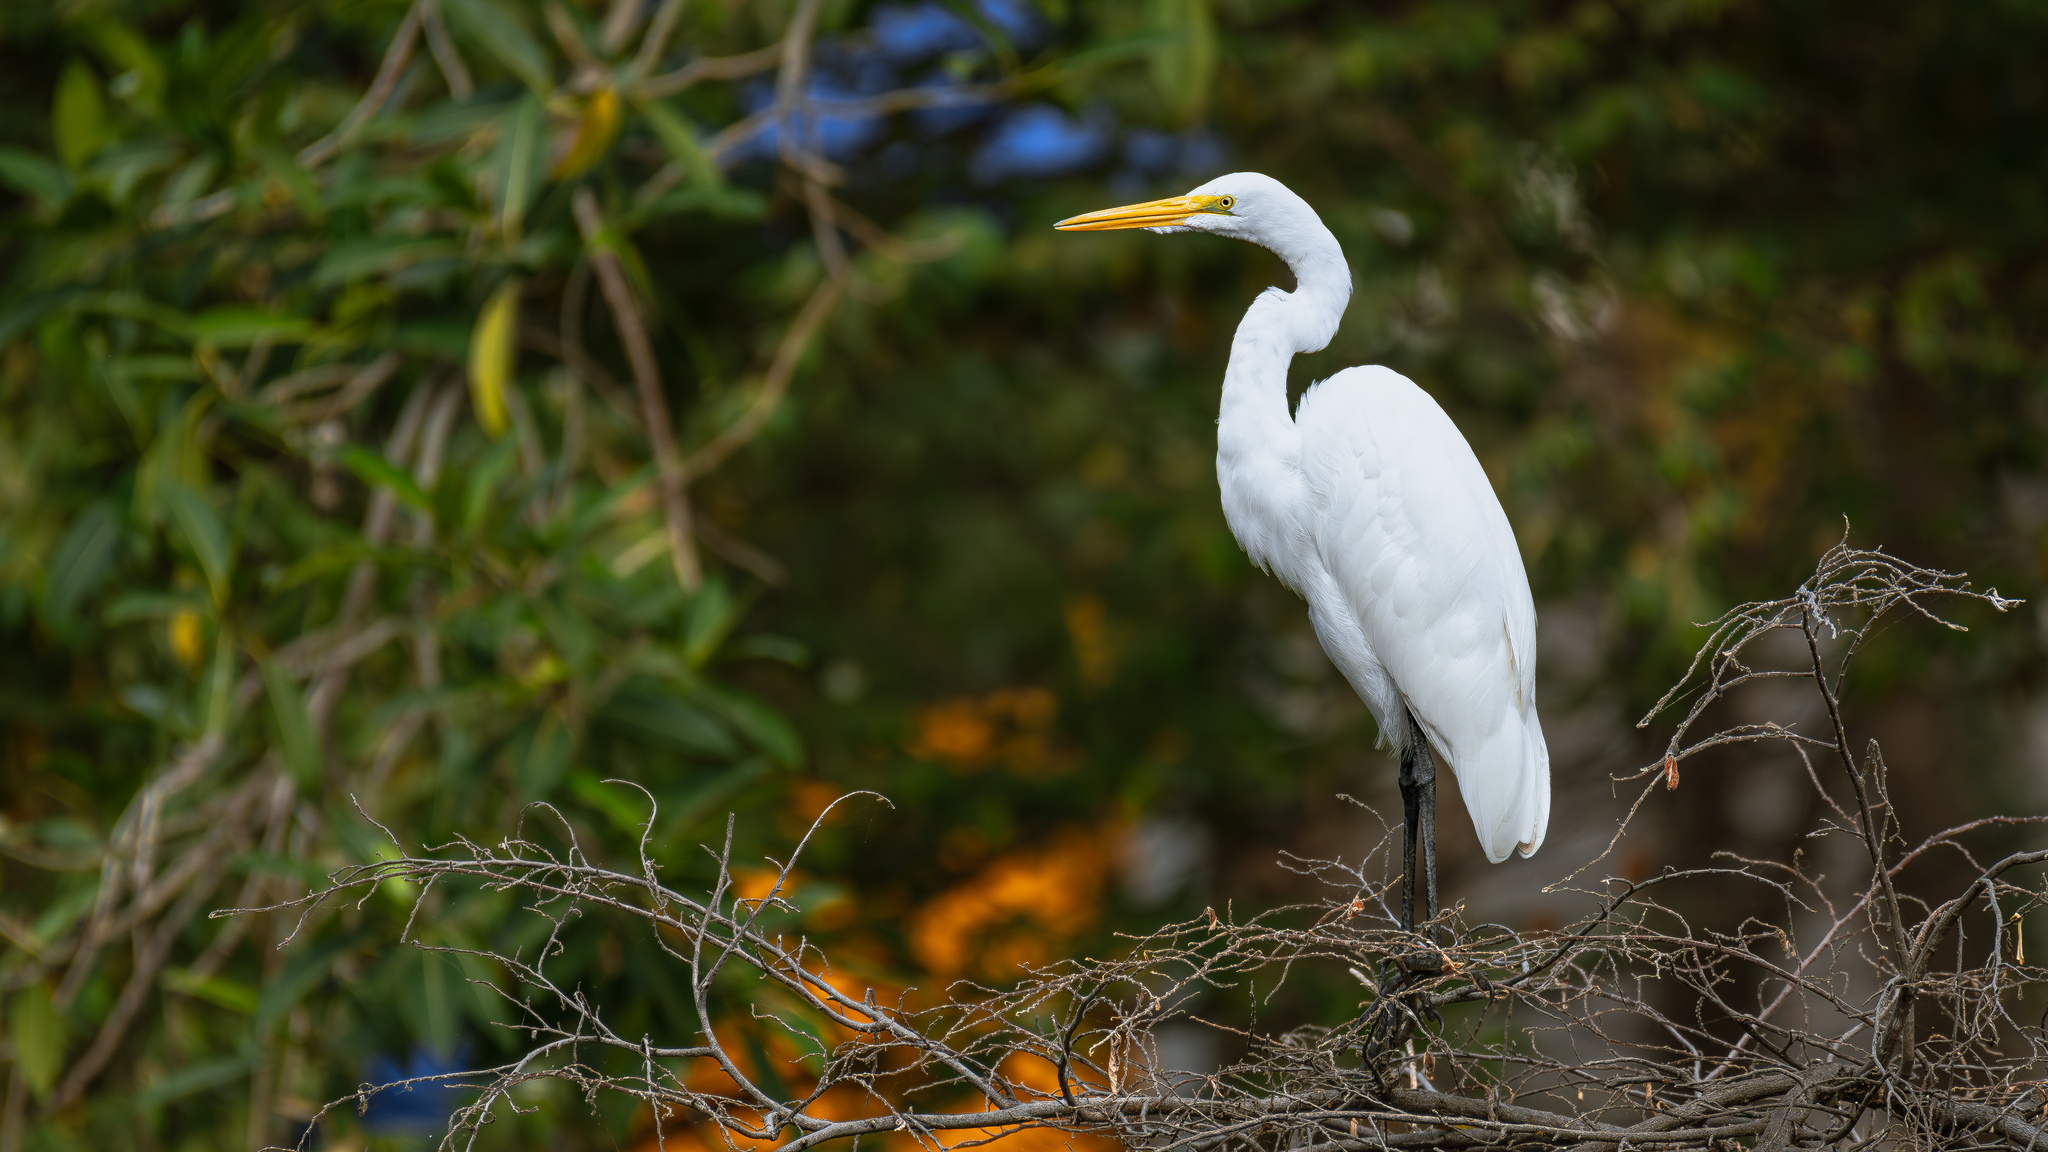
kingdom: Animalia
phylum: Chordata
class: Aves
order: Pelecaniformes
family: Ardeidae
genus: Ardea
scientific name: Ardea alba
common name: Great egret
